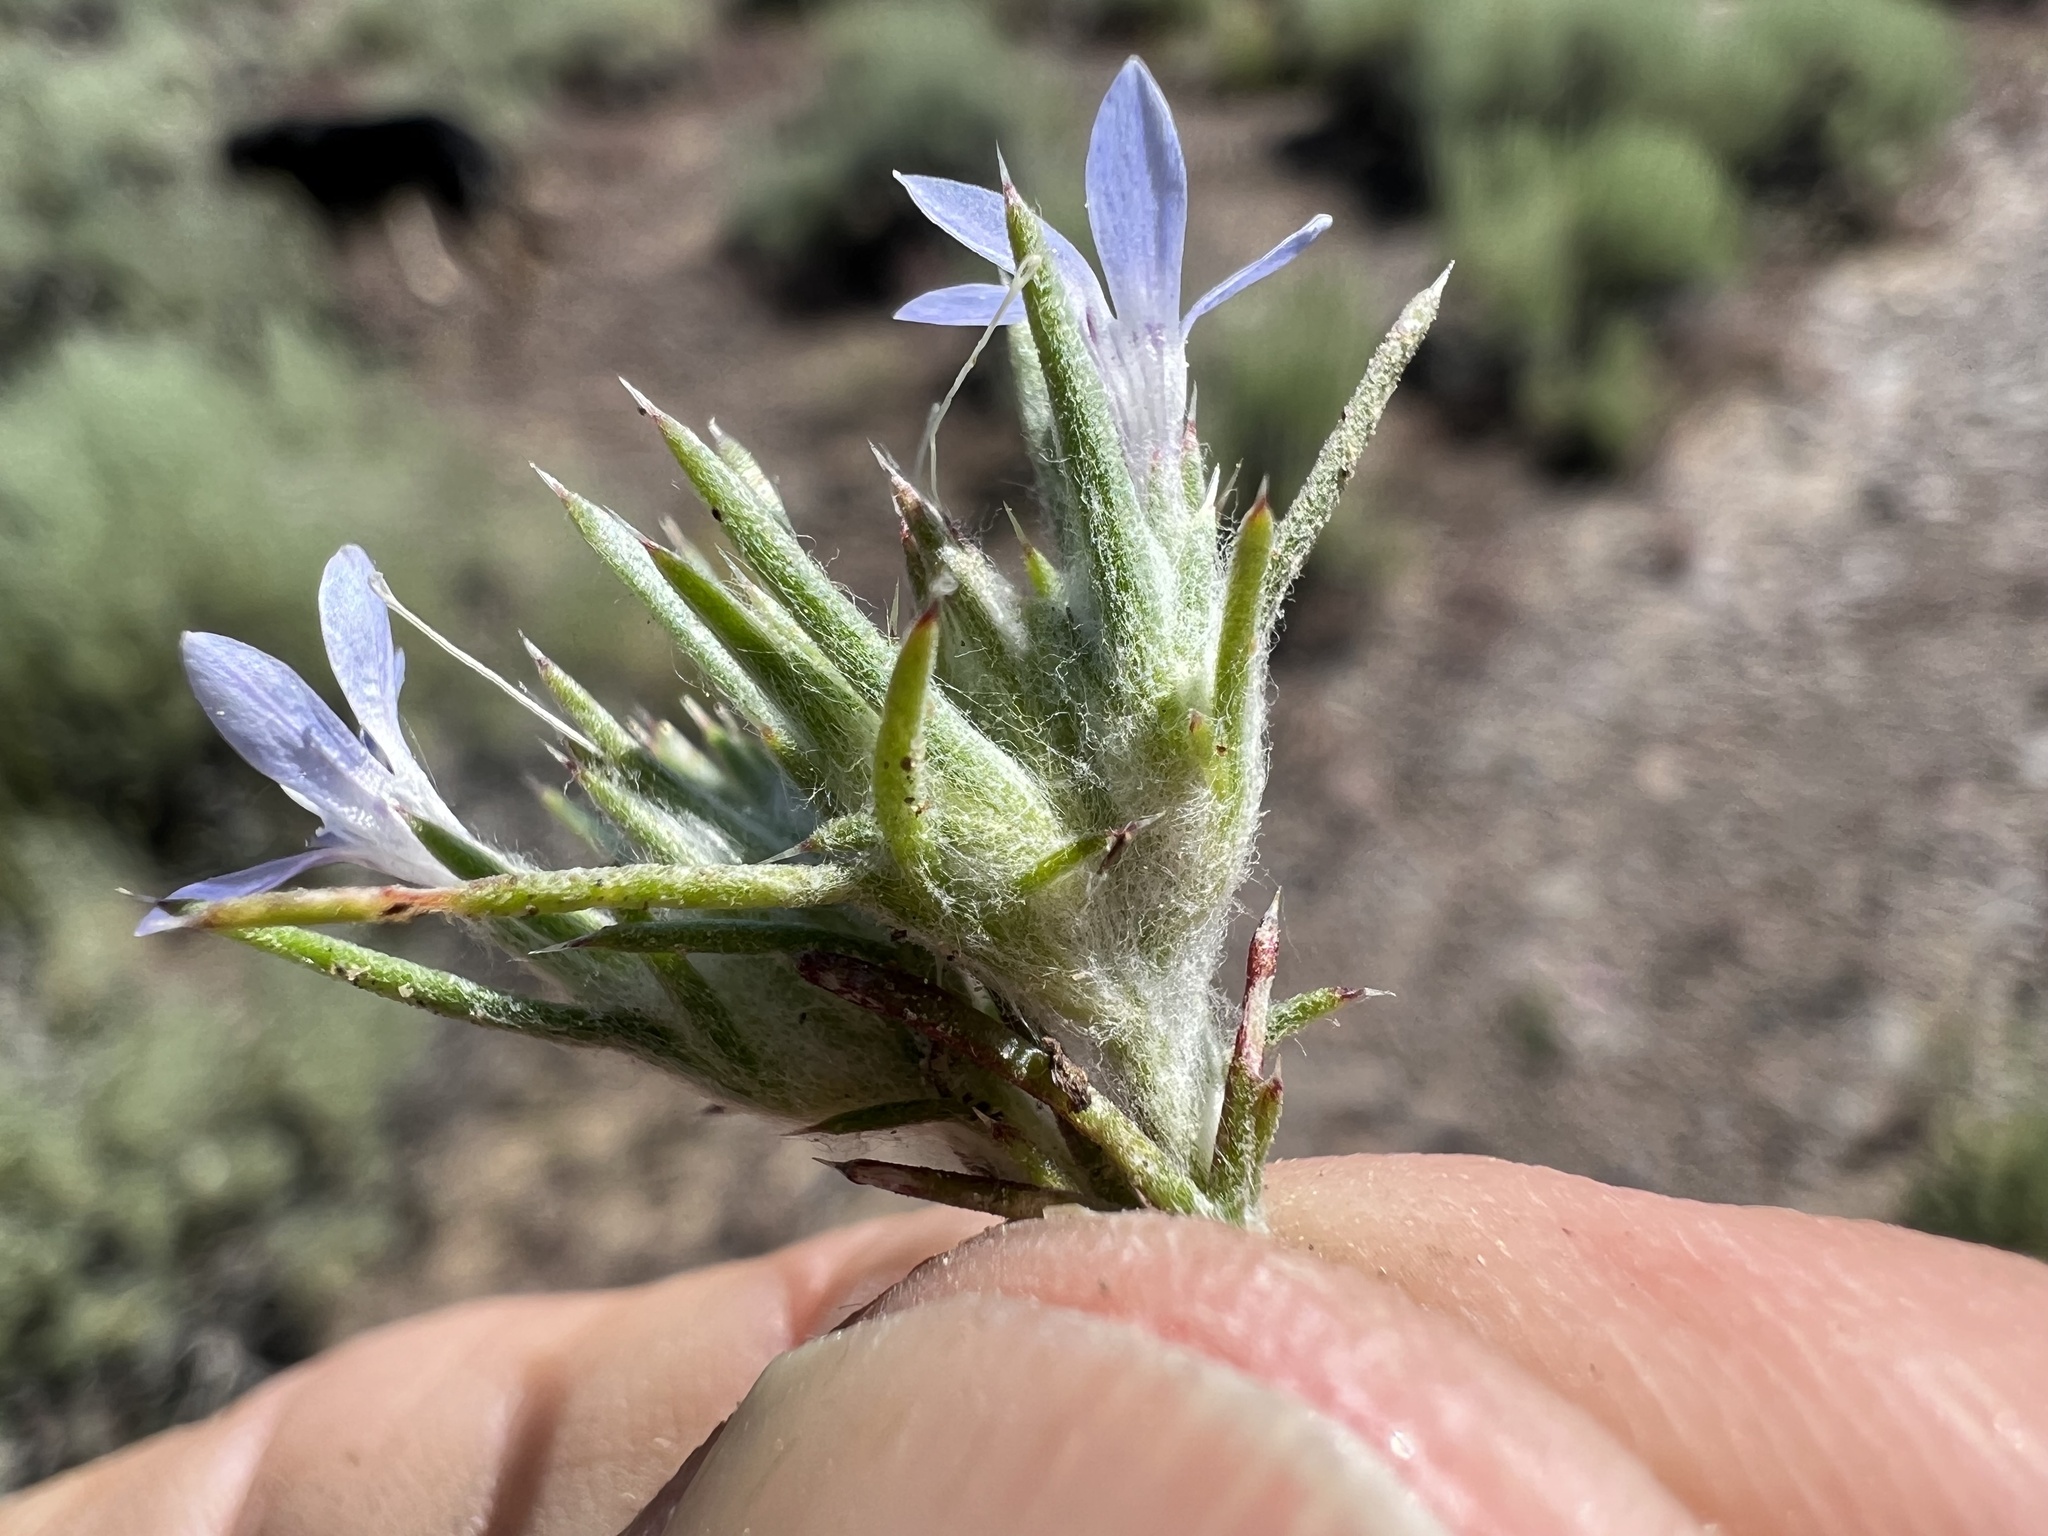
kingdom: Plantae
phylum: Tracheophyta
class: Magnoliopsida
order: Ericales
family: Polemoniaceae
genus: Eriastrum
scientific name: Eriastrum wilcoxii
